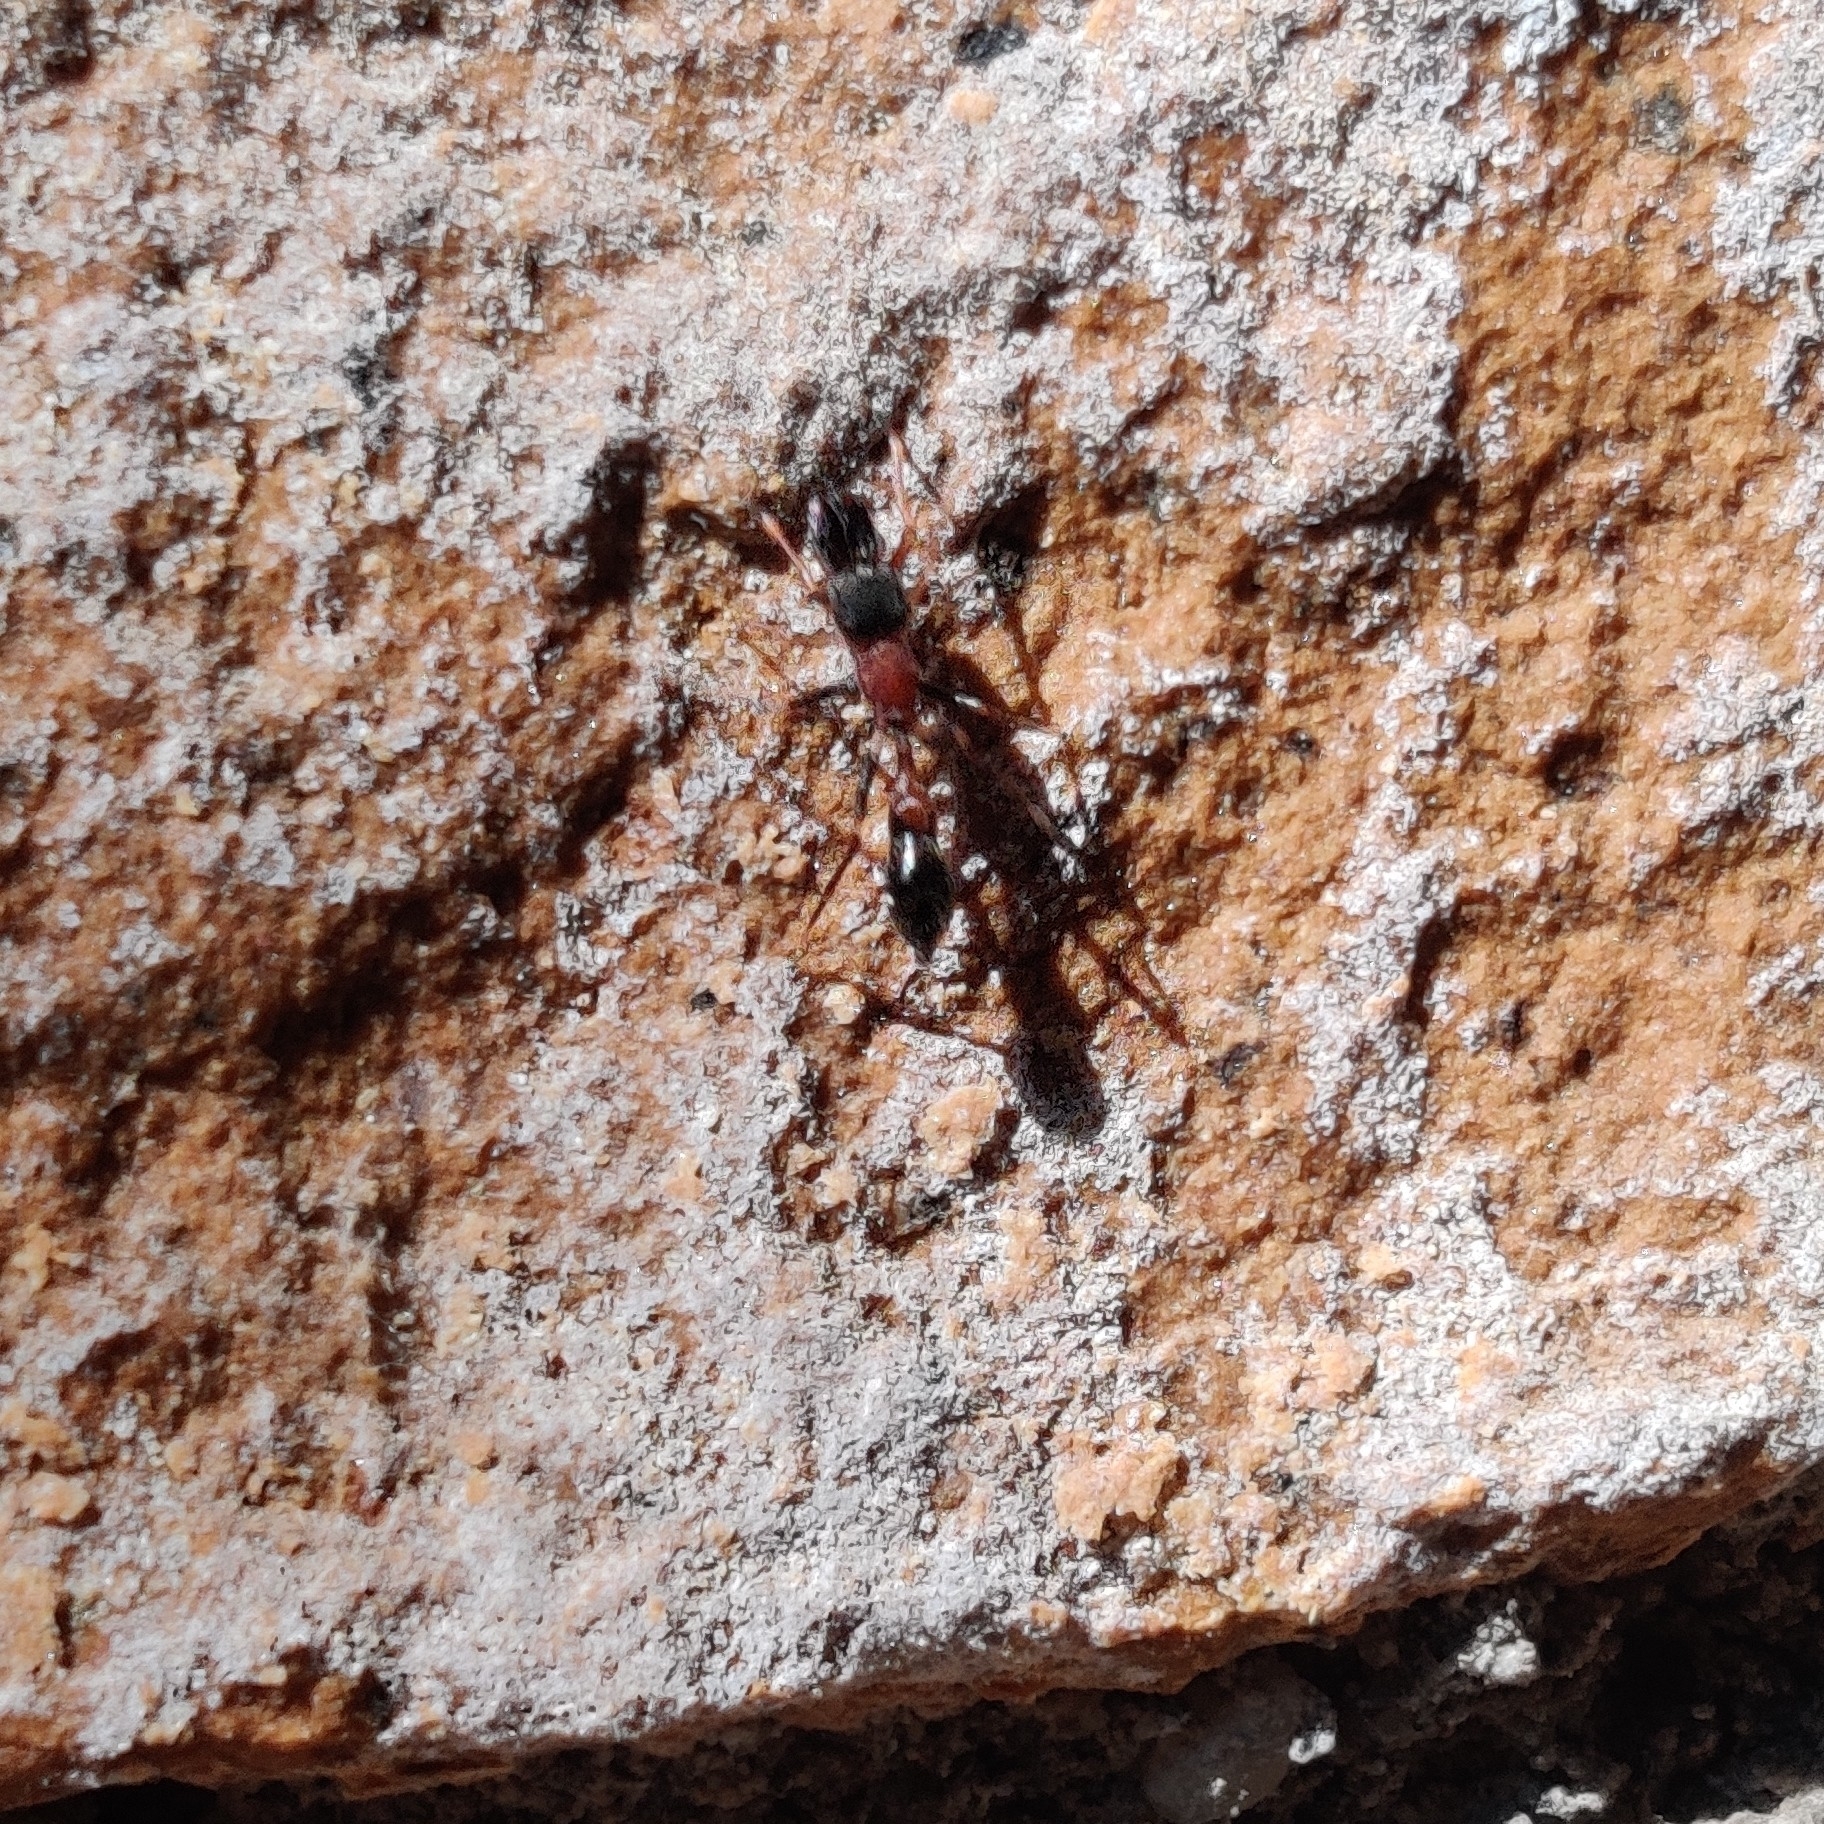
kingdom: Animalia
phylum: Arthropoda
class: Arachnida
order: Araneae
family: Salticidae
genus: Myrmarachne
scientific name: Myrmarachne melanocephala
